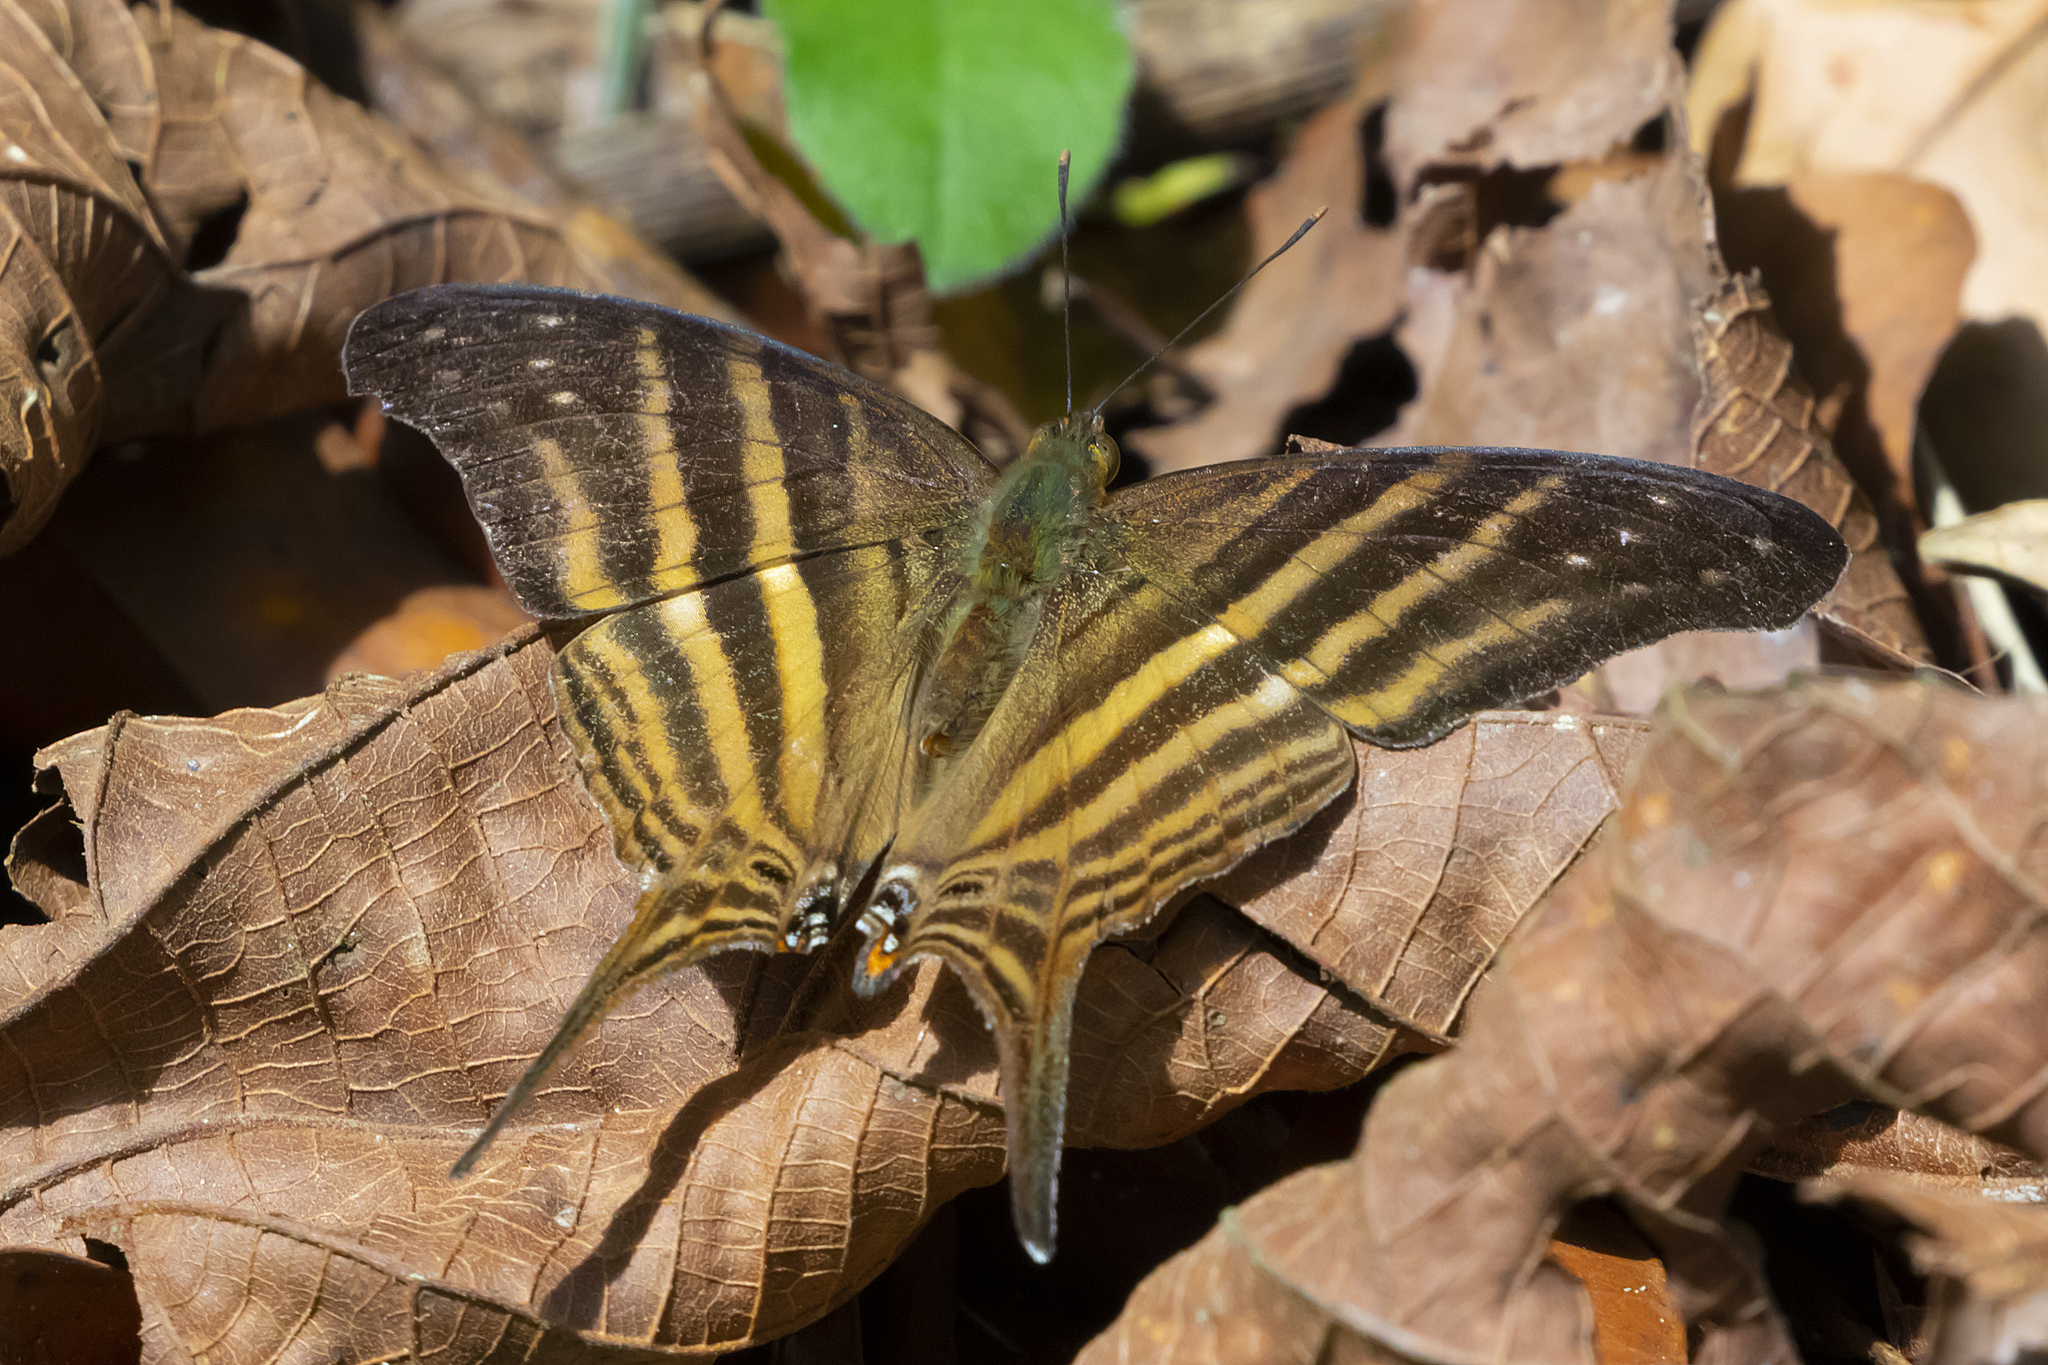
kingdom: Animalia
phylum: Arthropoda
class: Insecta
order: Lepidoptera
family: Nymphalidae
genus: Marpesia
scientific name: Marpesia chiron
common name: Many-banded daggerwing
